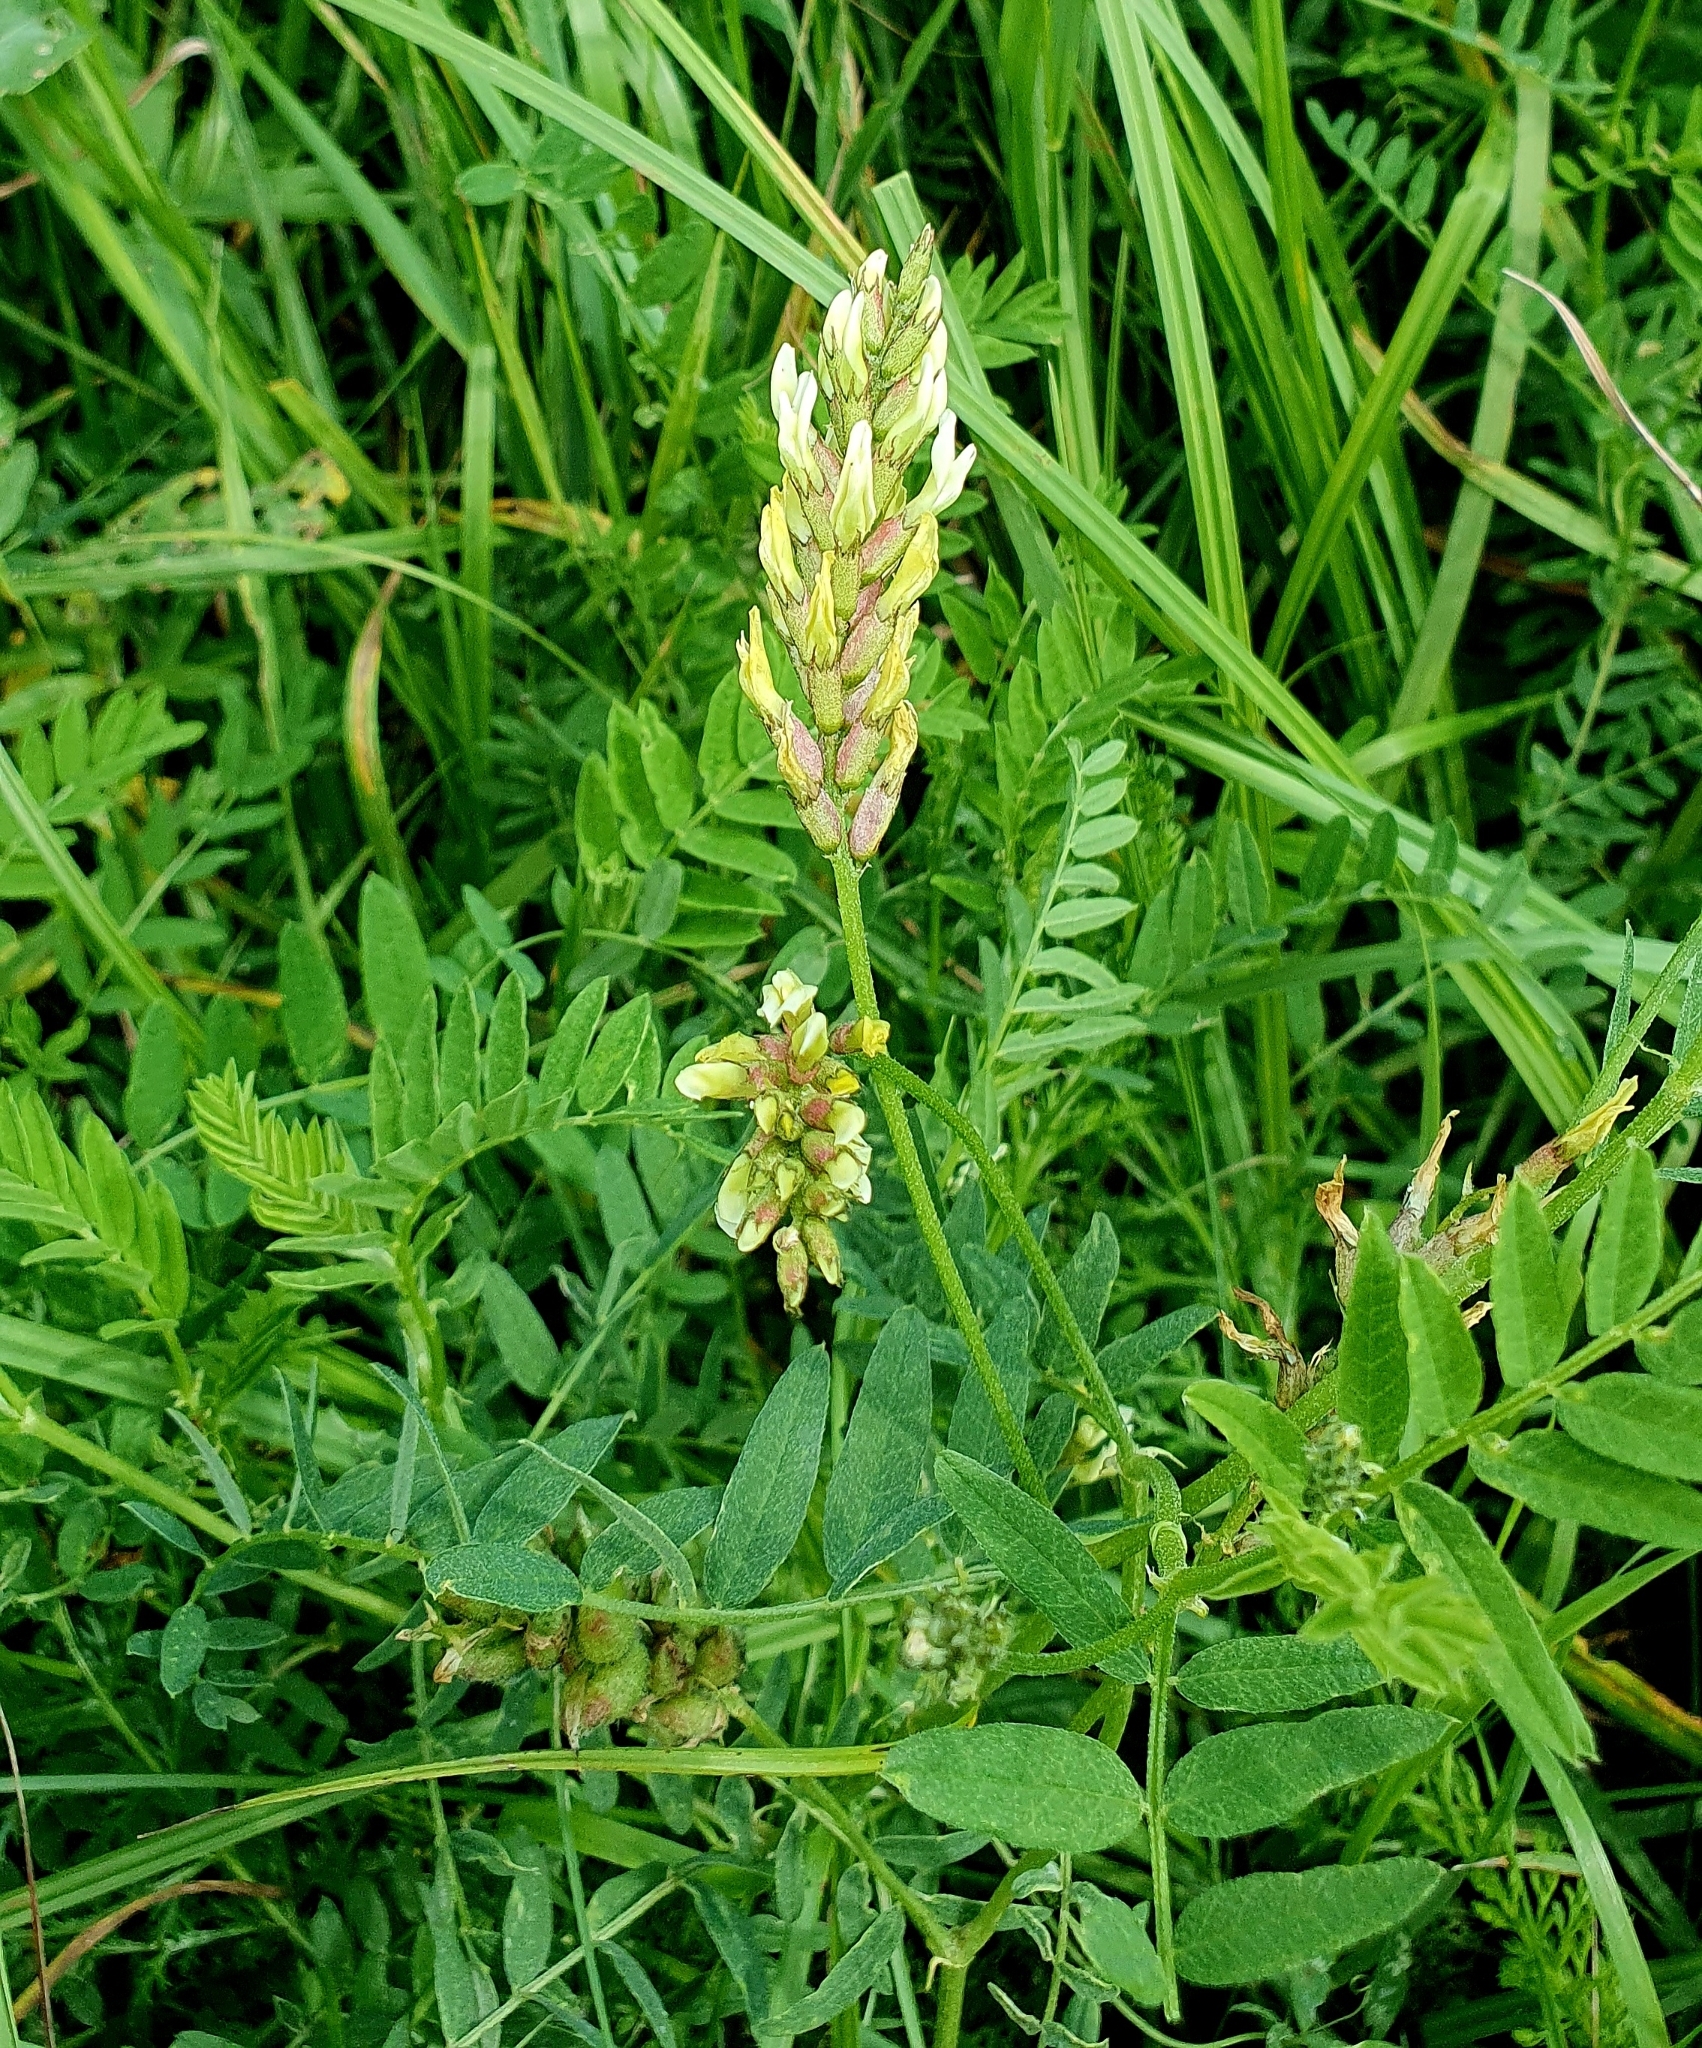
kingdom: Plantae
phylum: Tracheophyta
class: Magnoliopsida
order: Fabales
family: Fabaceae
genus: Astragalus
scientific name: Astragalus cicer
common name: Chick-pea milk-vetch
